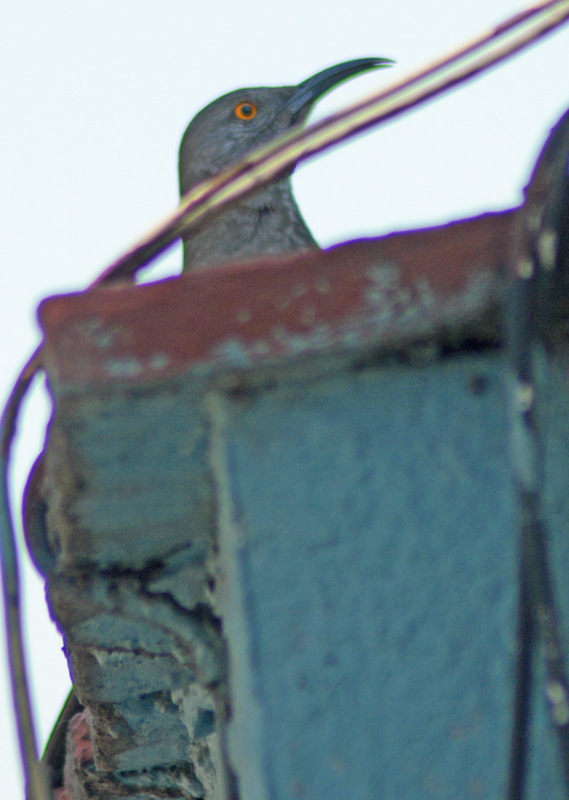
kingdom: Animalia
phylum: Chordata
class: Aves
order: Passeriformes
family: Mimidae
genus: Toxostoma
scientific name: Toxostoma curvirostre
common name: Curve-billed thrasher
